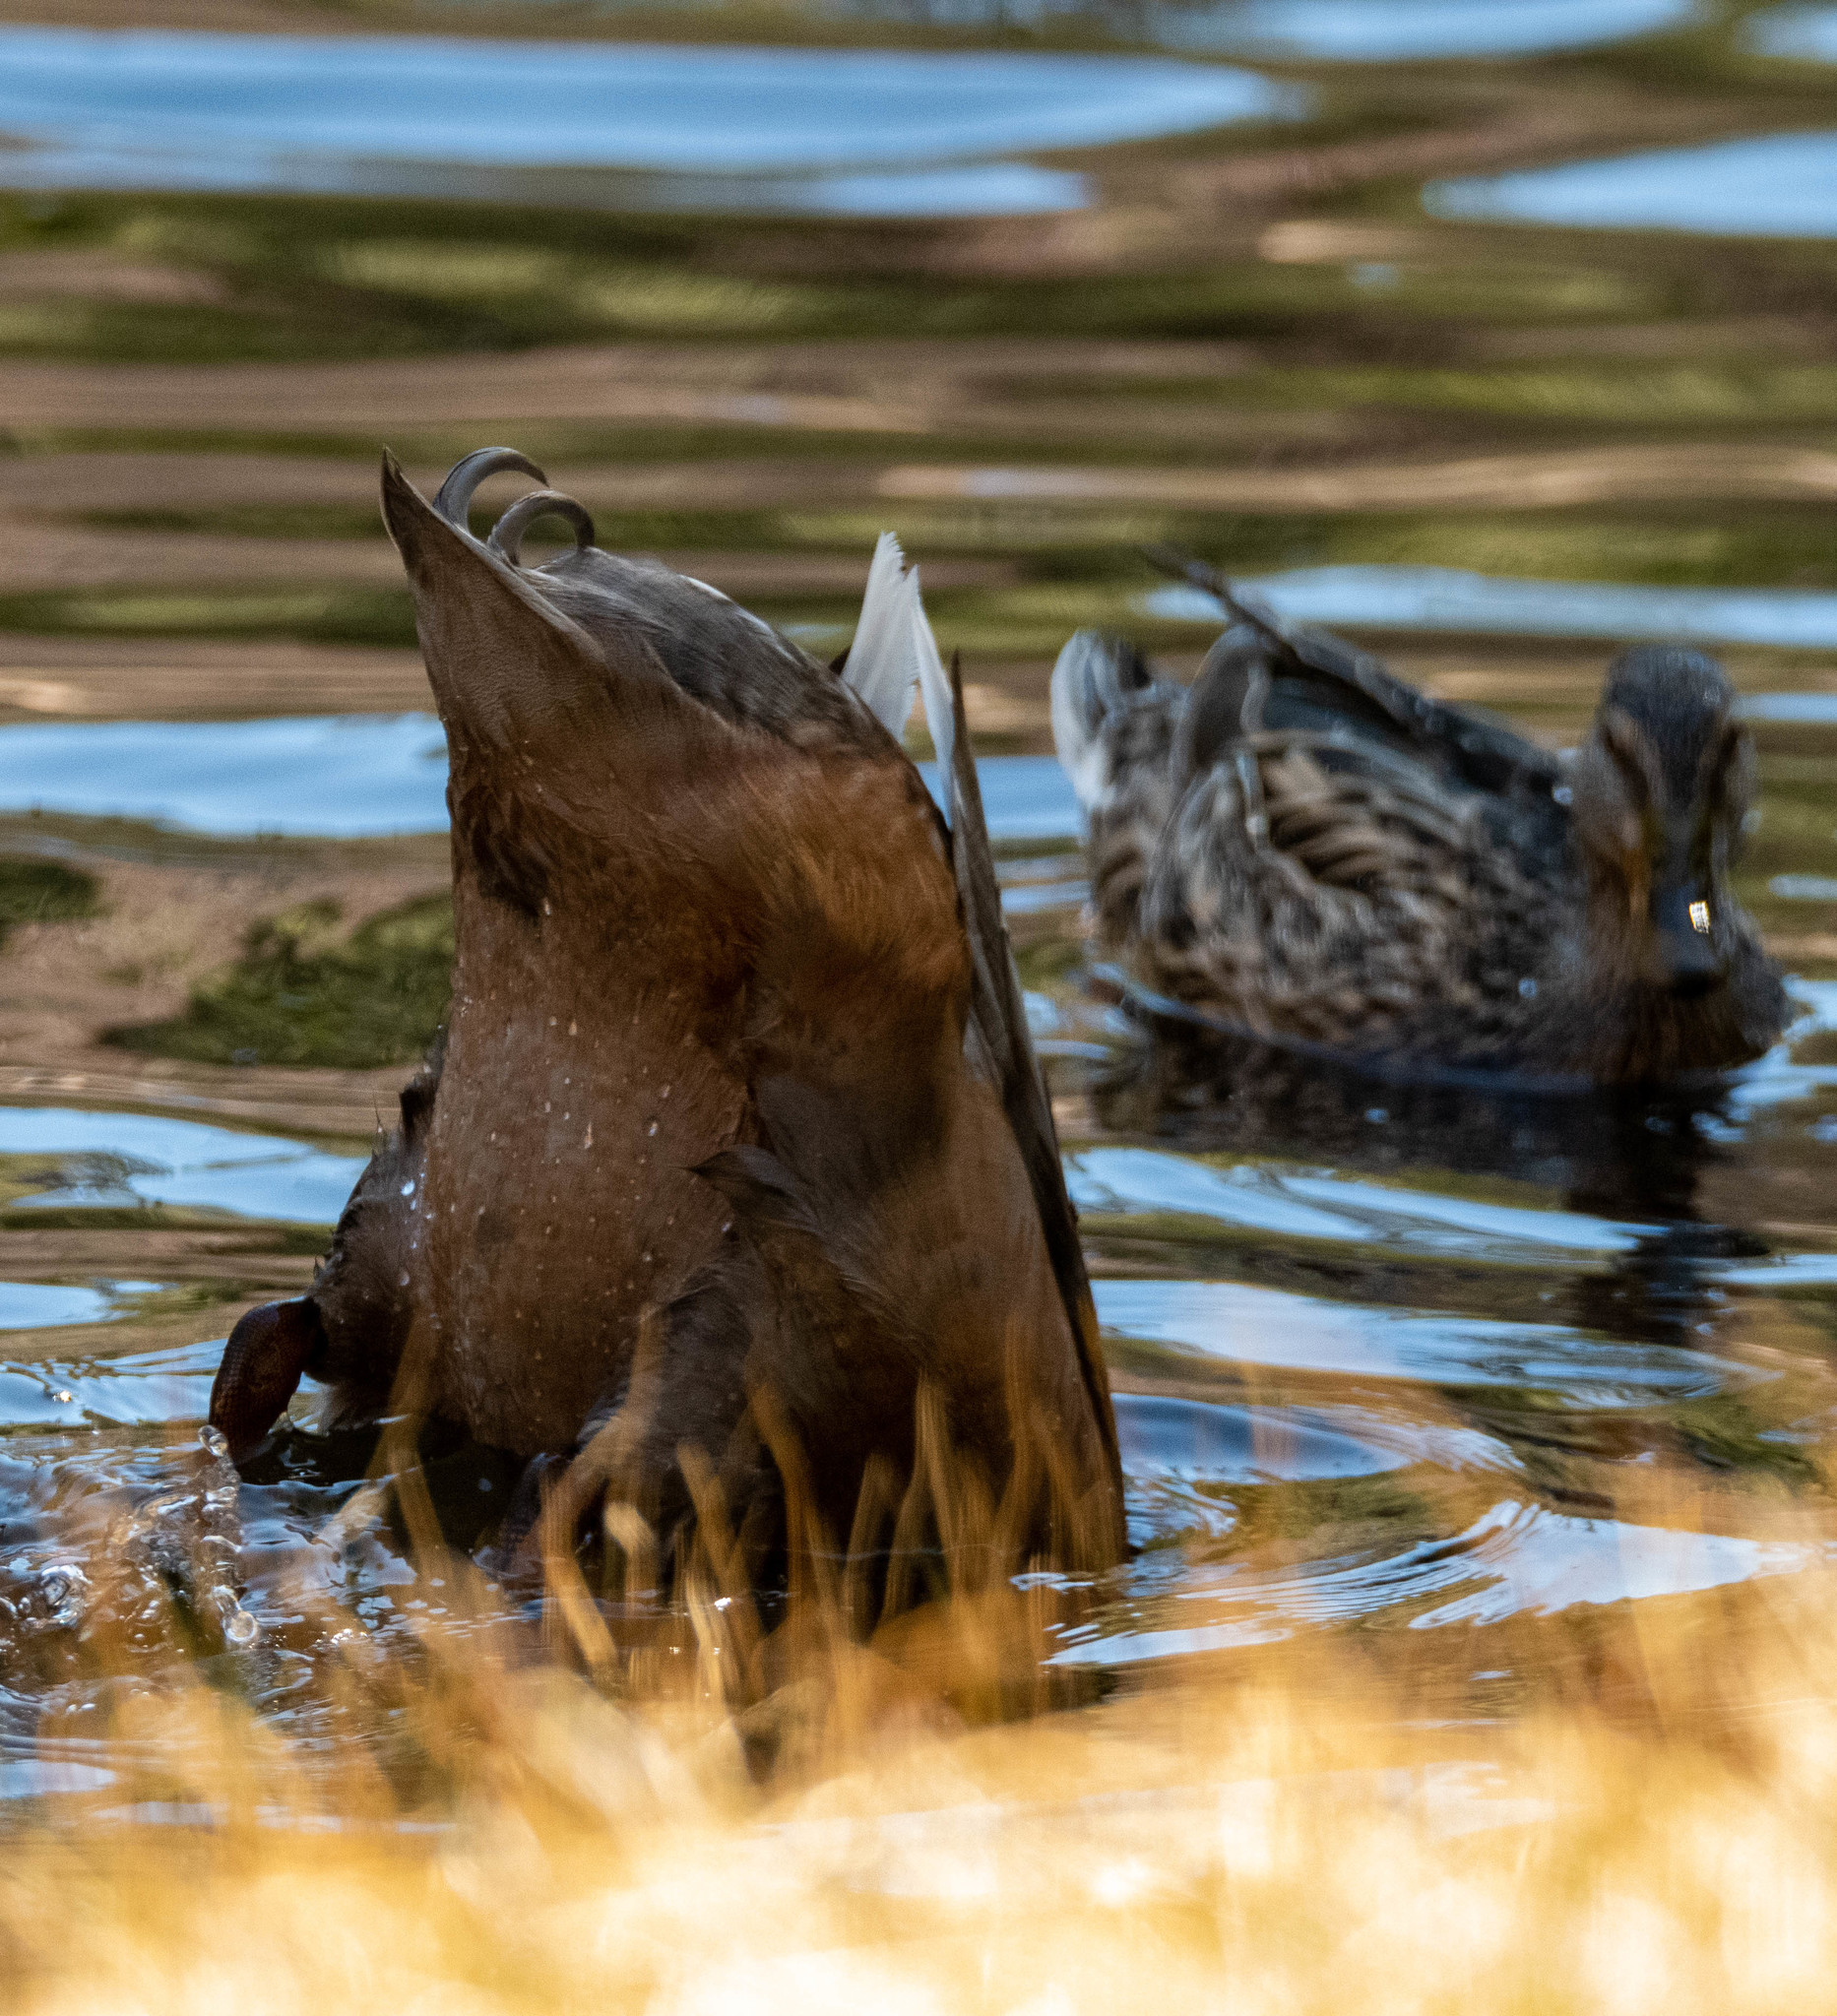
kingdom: Animalia
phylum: Chordata
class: Aves
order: Anseriformes
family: Anatidae
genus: Anas
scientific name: Anas platyrhynchos
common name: Mallard
